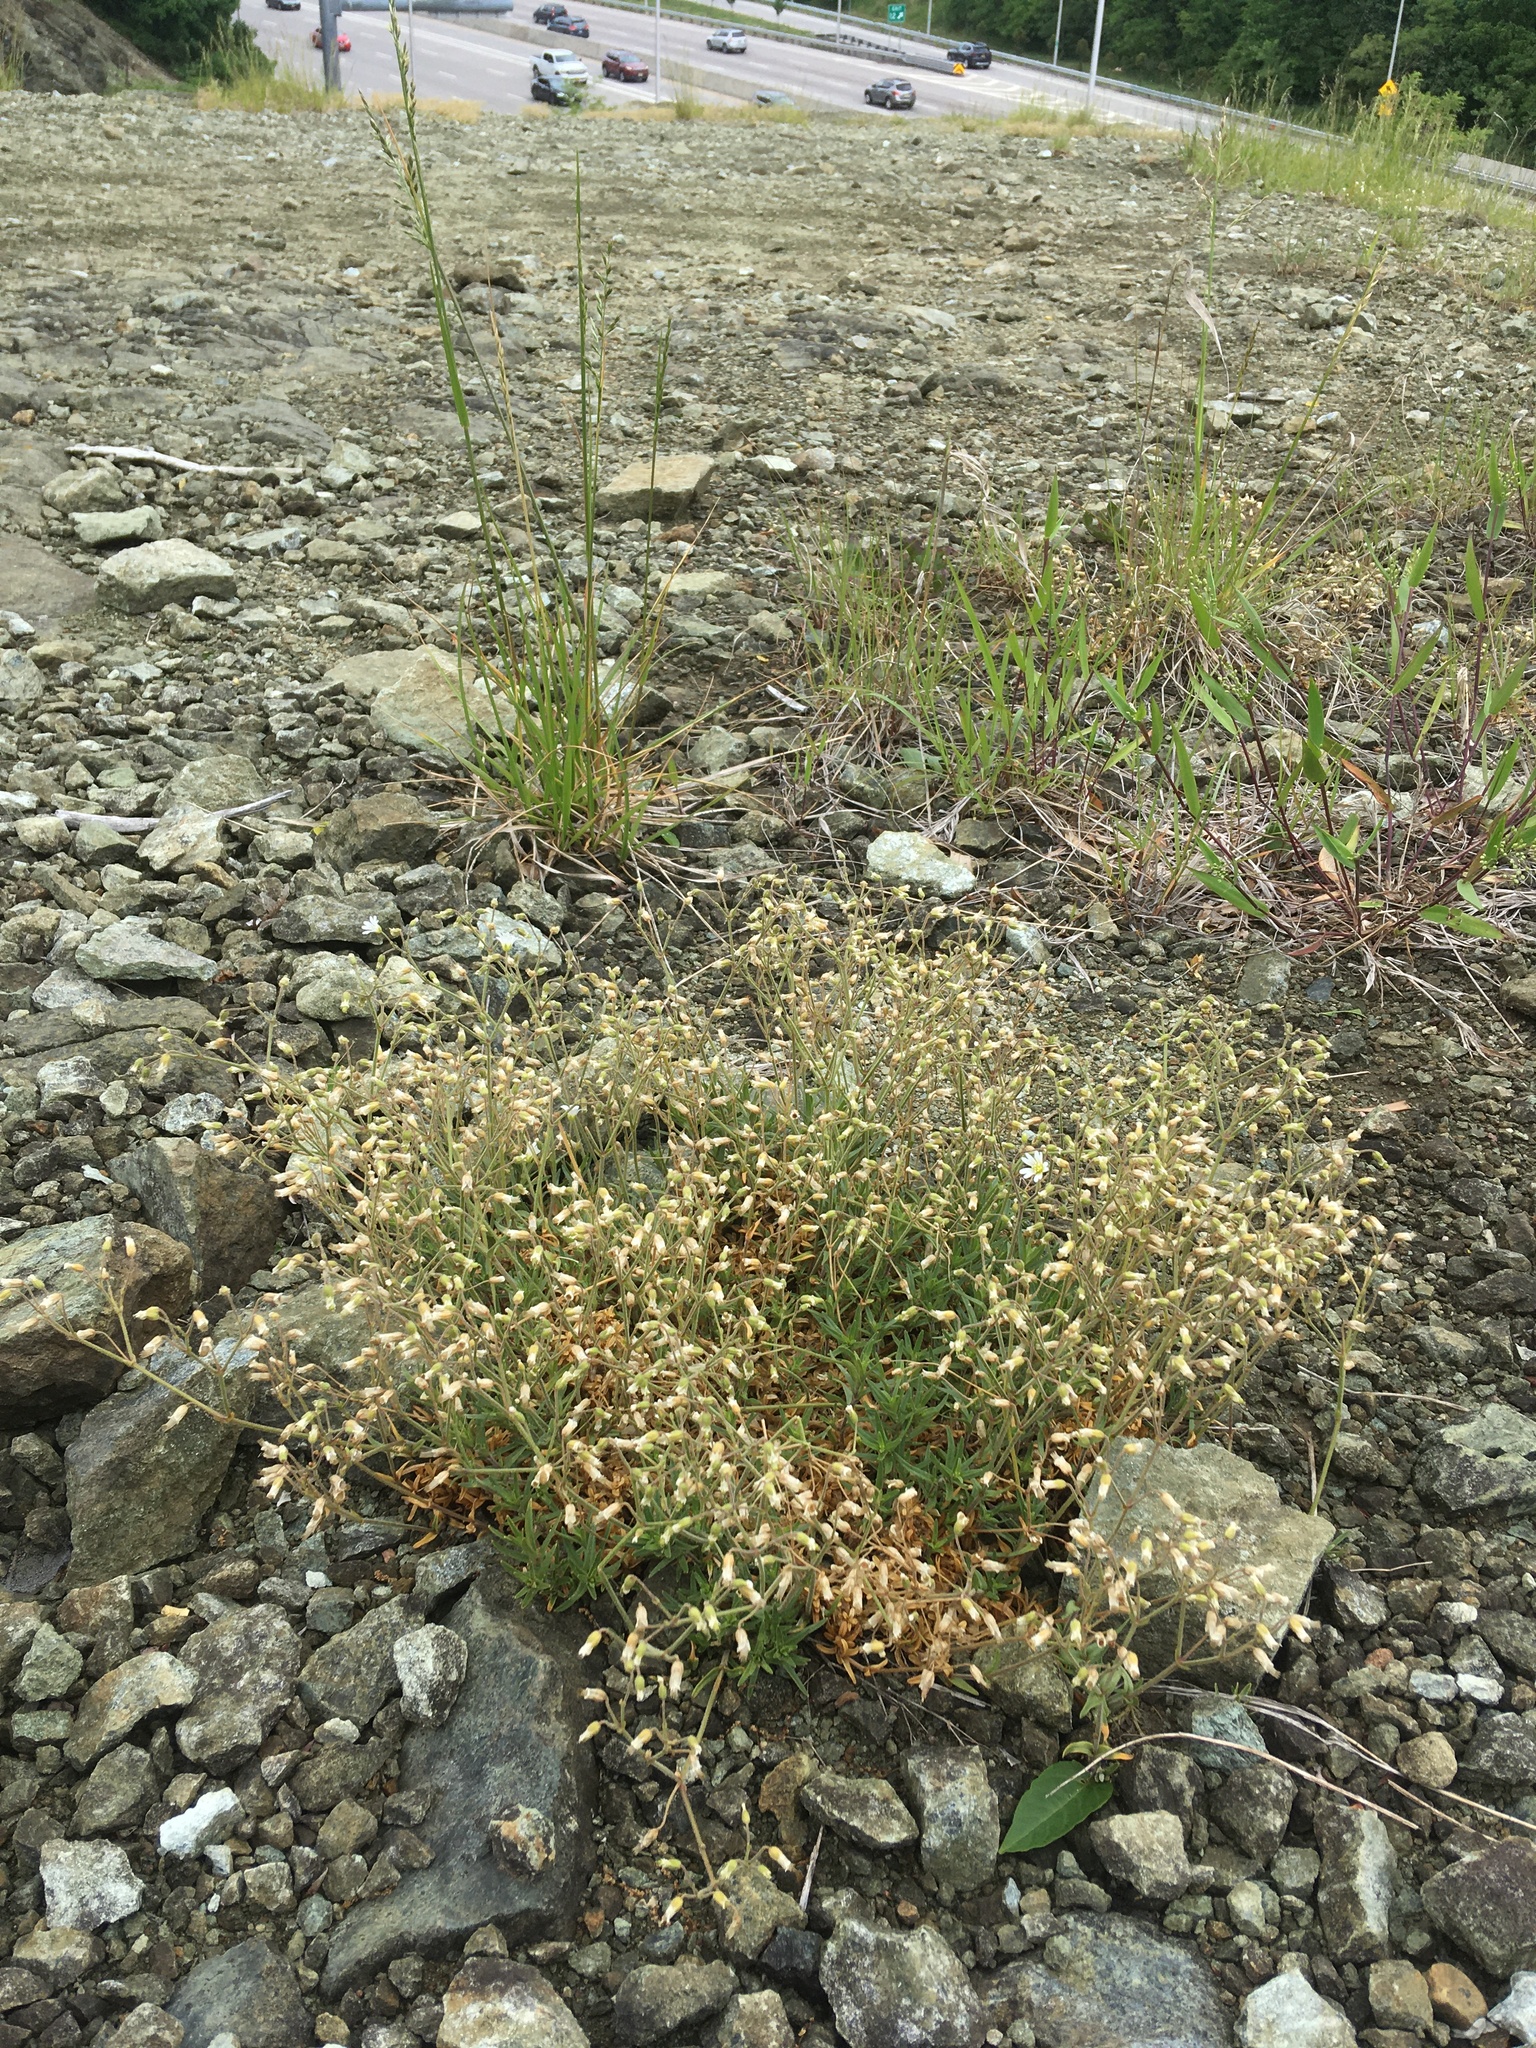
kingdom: Plantae
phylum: Tracheophyta
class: Magnoliopsida
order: Caryophyllales
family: Caryophyllaceae
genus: Cerastium
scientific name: Cerastium arvense
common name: Field mouse-ear
